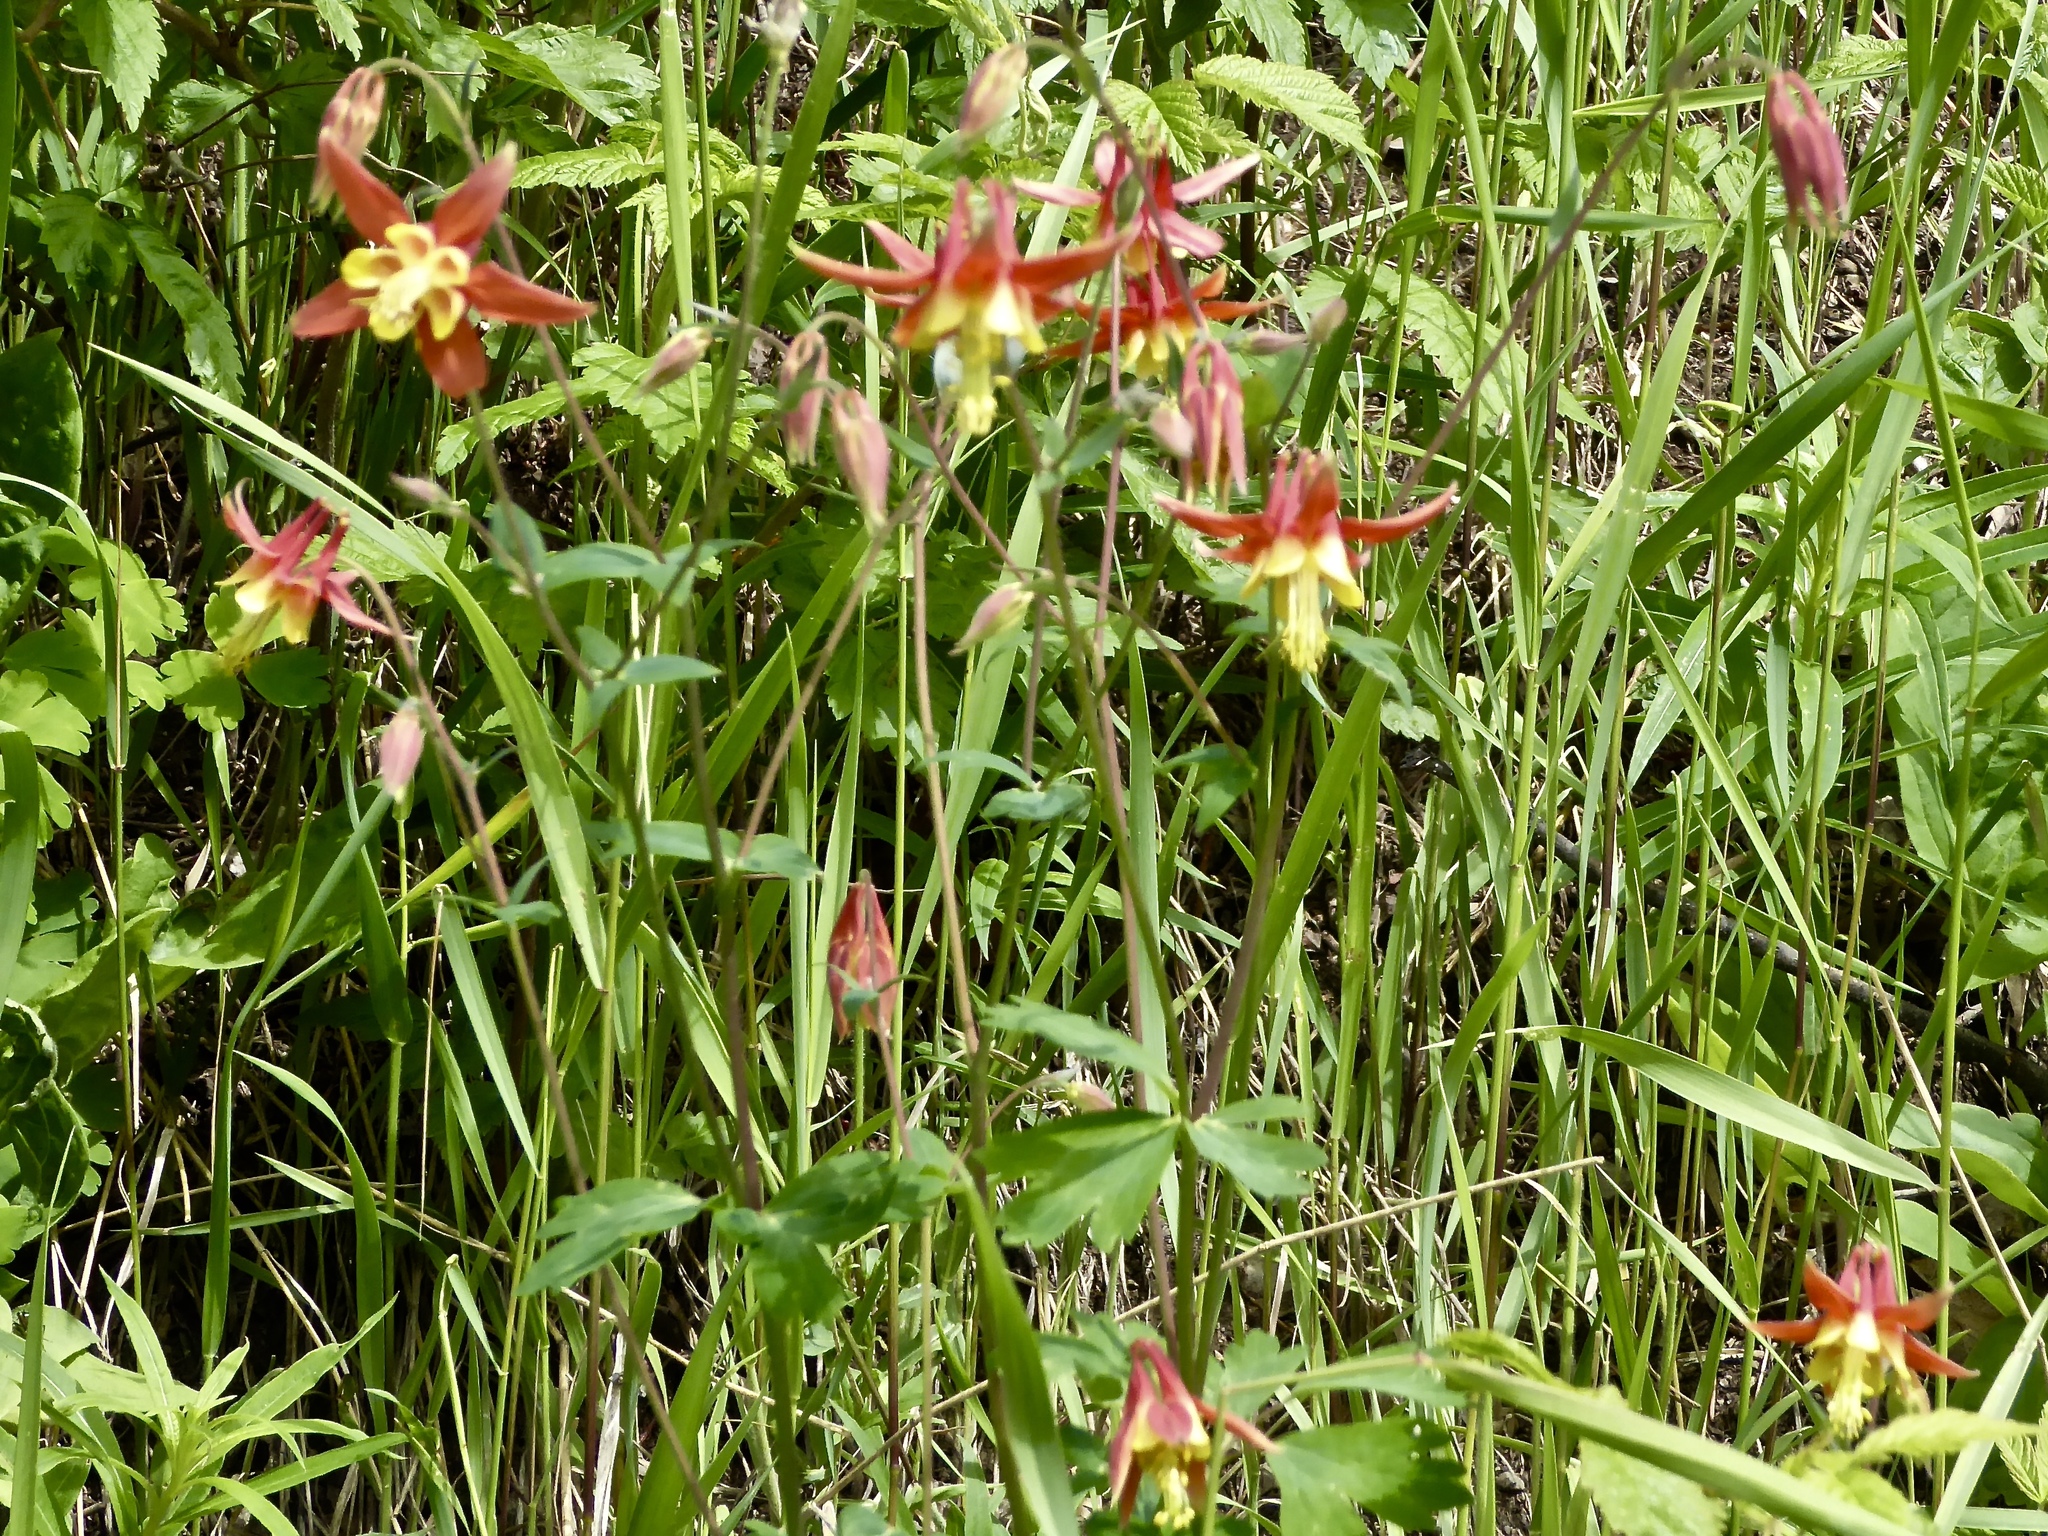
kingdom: Plantae
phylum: Tracheophyta
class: Magnoliopsida
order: Ranunculales
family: Ranunculaceae
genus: Aquilegia
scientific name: Aquilegia formosa
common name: Sitka columbine
